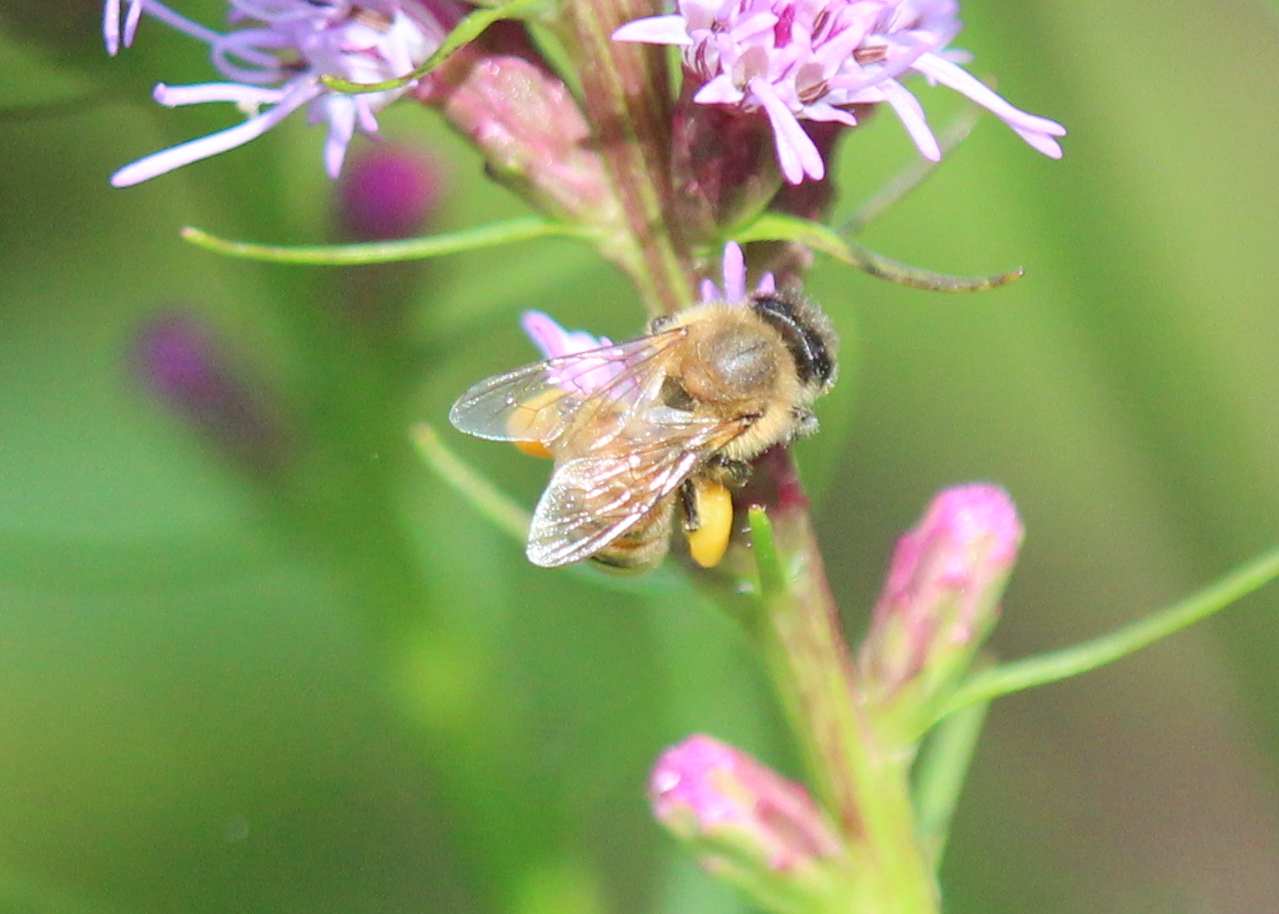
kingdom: Animalia
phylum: Arthropoda
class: Insecta
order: Hymenoptera
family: Apidae
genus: Apis
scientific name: Apis mellifera
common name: Honey bee
